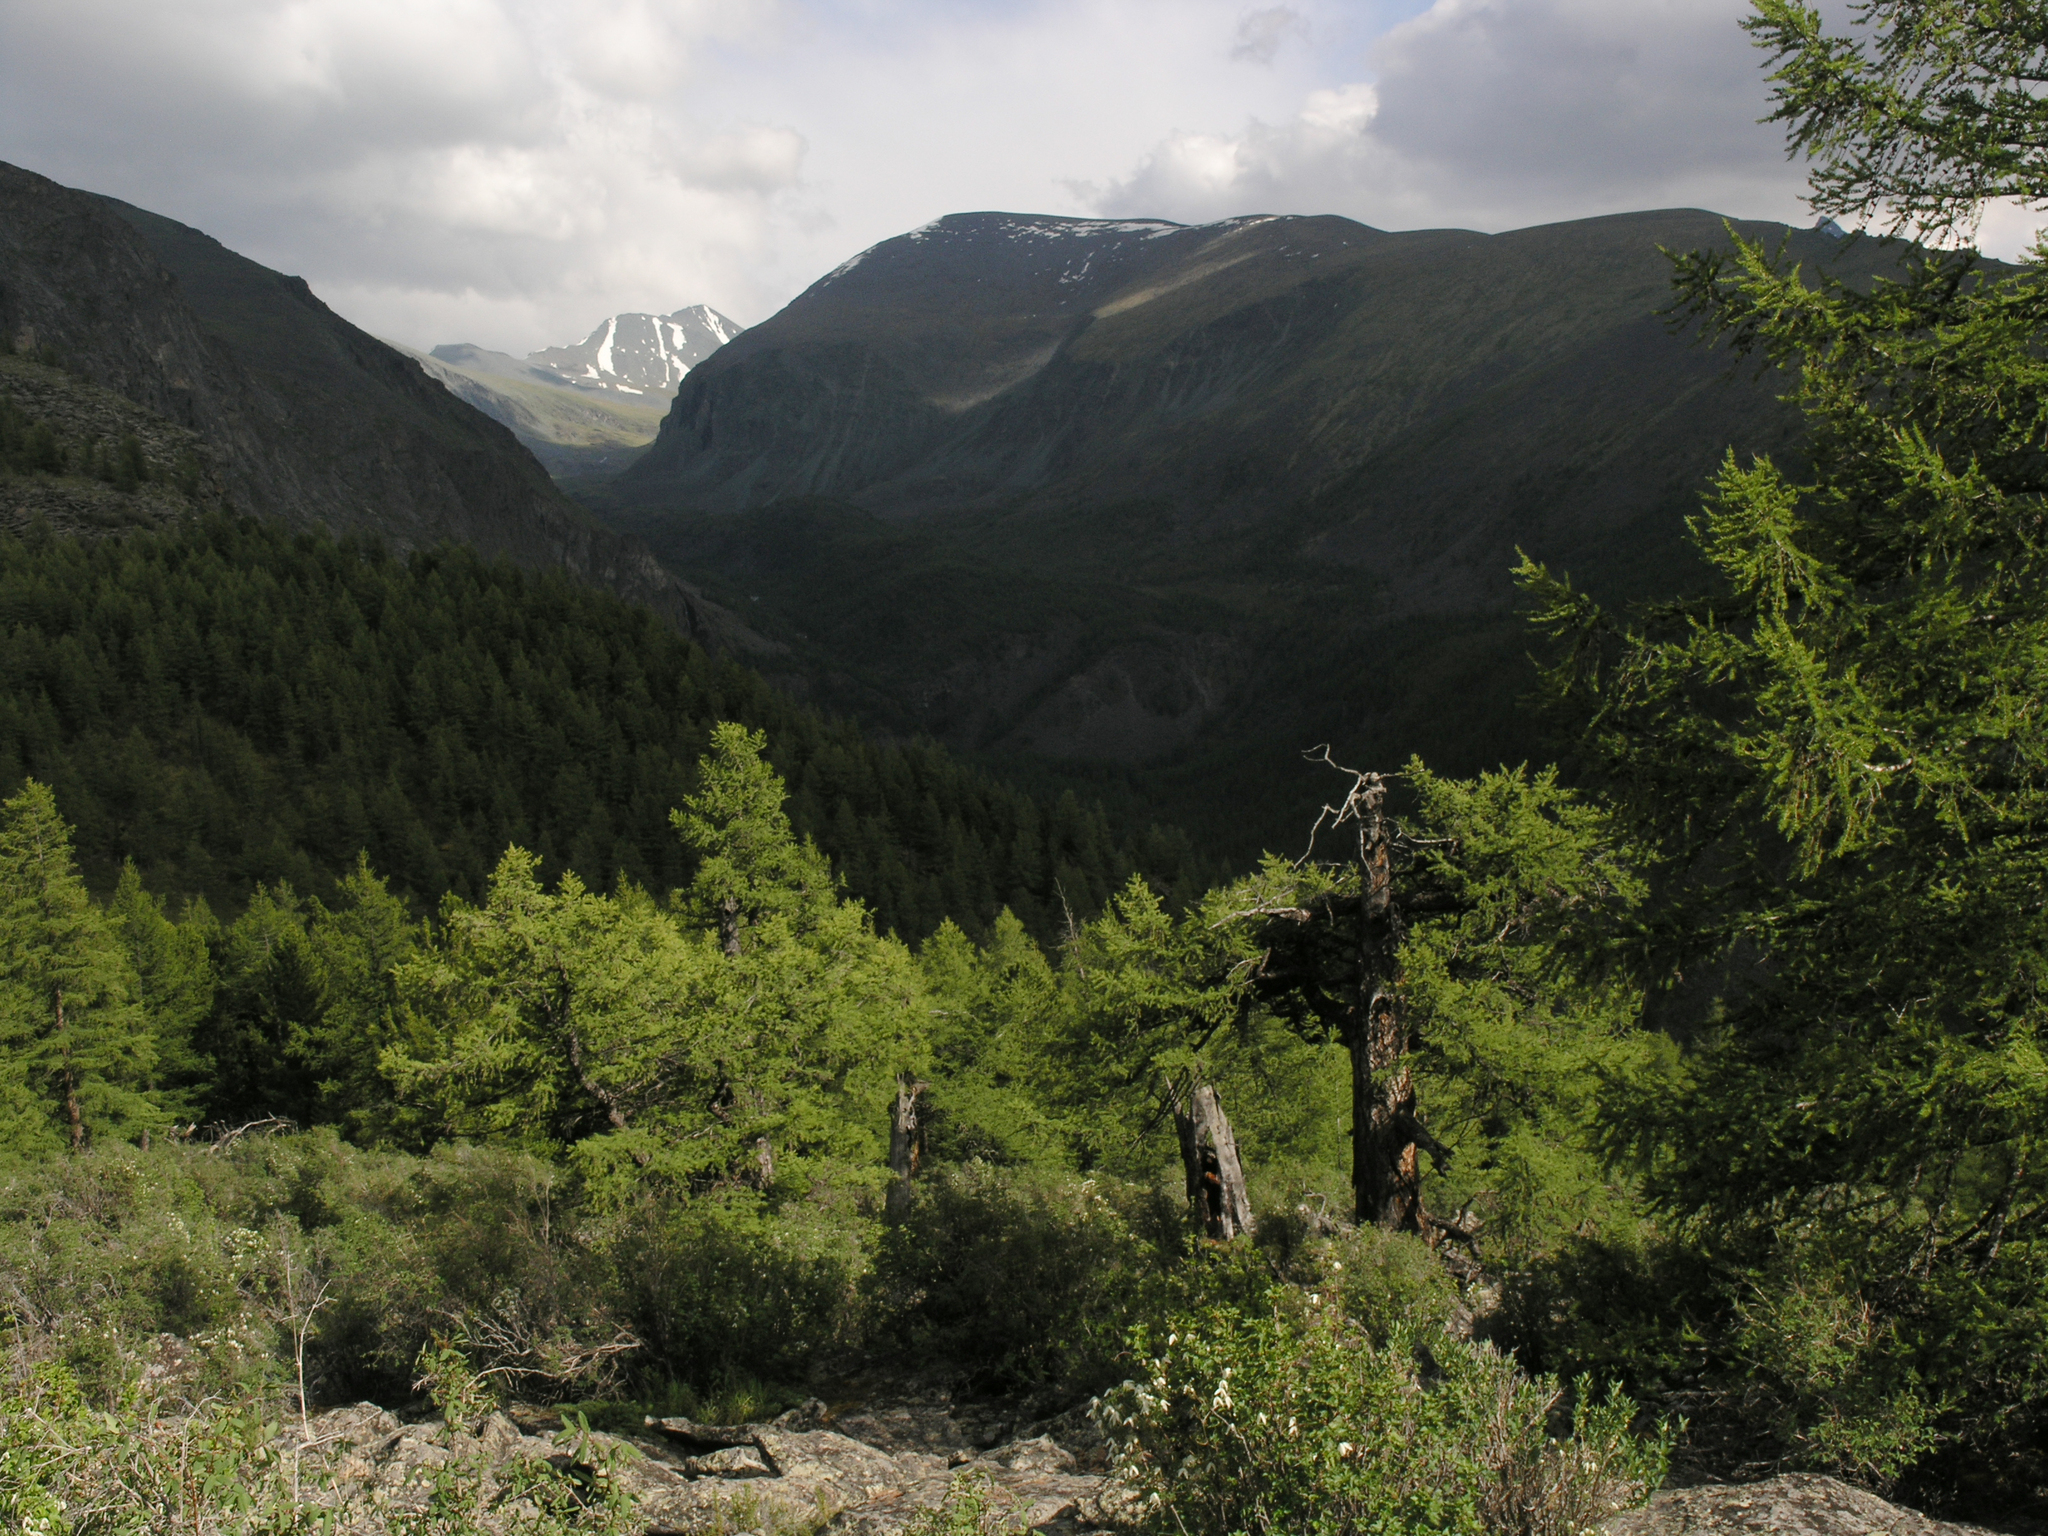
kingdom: Plantae
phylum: Tracheophyta
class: Pinopsida
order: Pinales
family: Pinaceae
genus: Larix
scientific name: Larix sibirica
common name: Siberian larch
